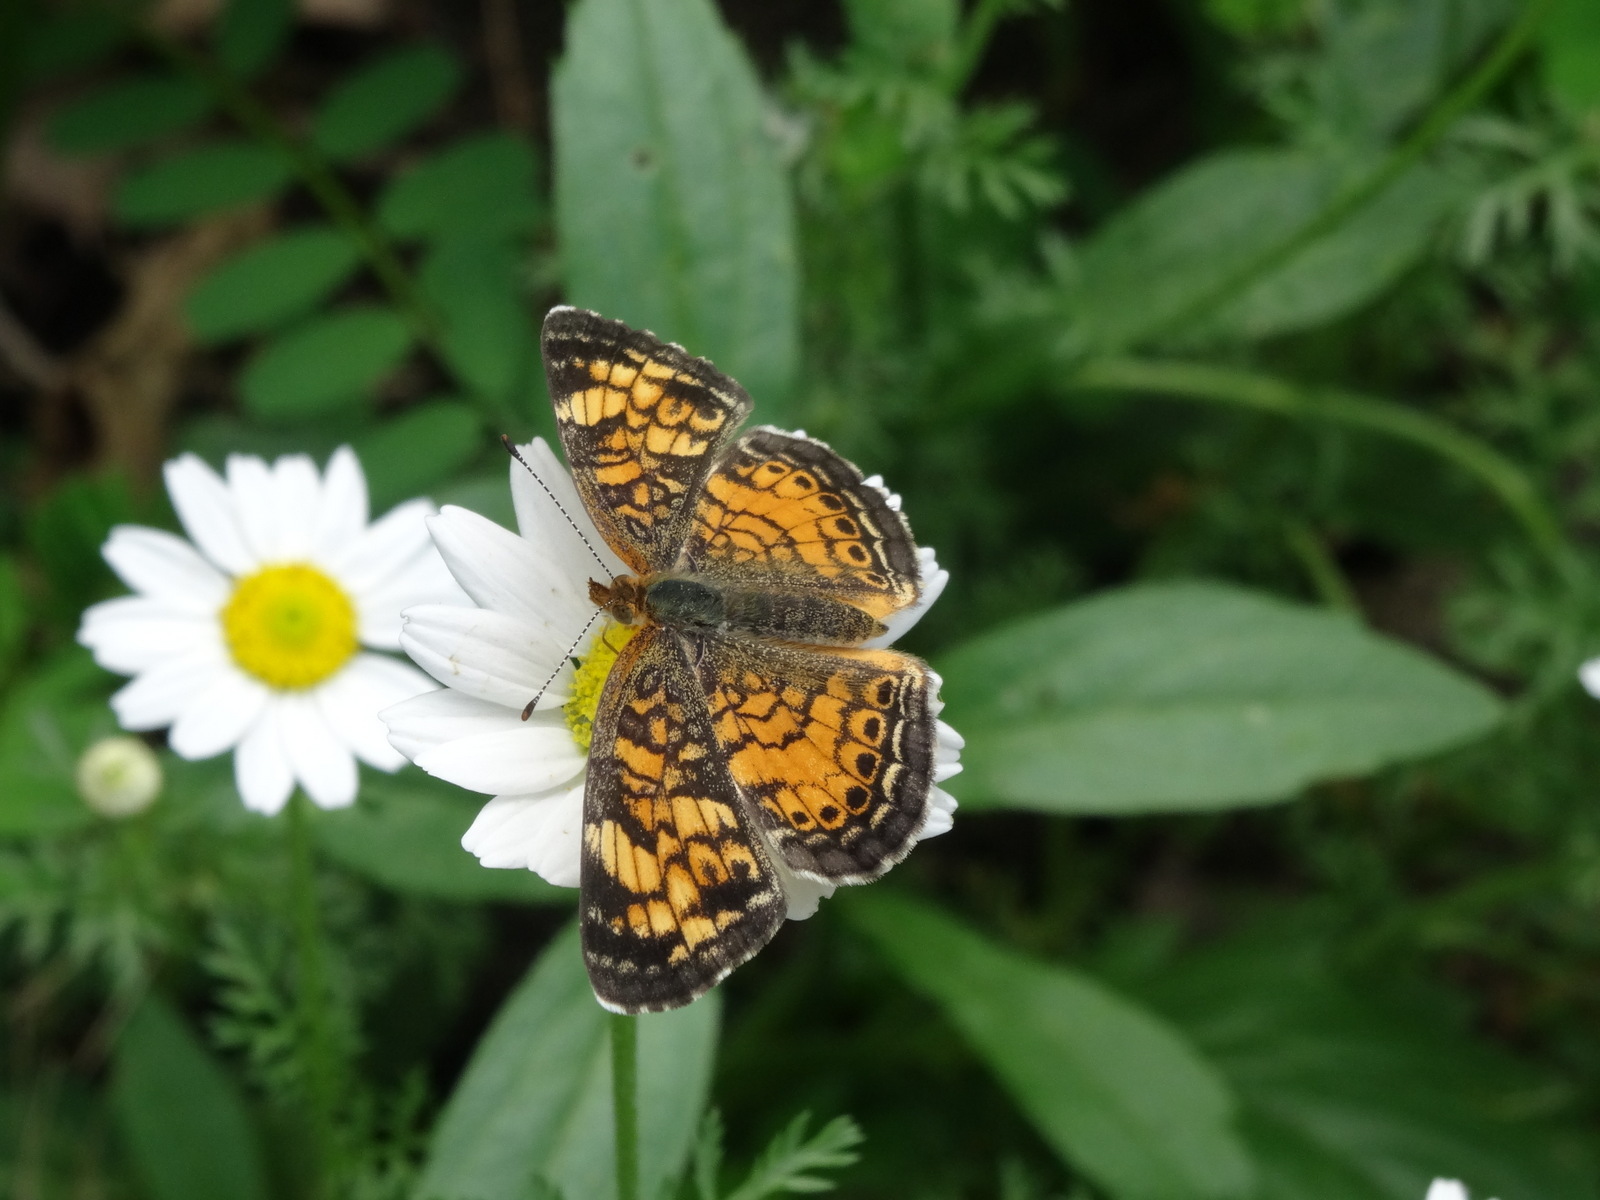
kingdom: Animalia
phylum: Arthropoda
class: Insecta
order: Lepidoptera
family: Nymphalidae
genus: Phyciodes
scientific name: Phyciodes tharos
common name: Pearl crescent
